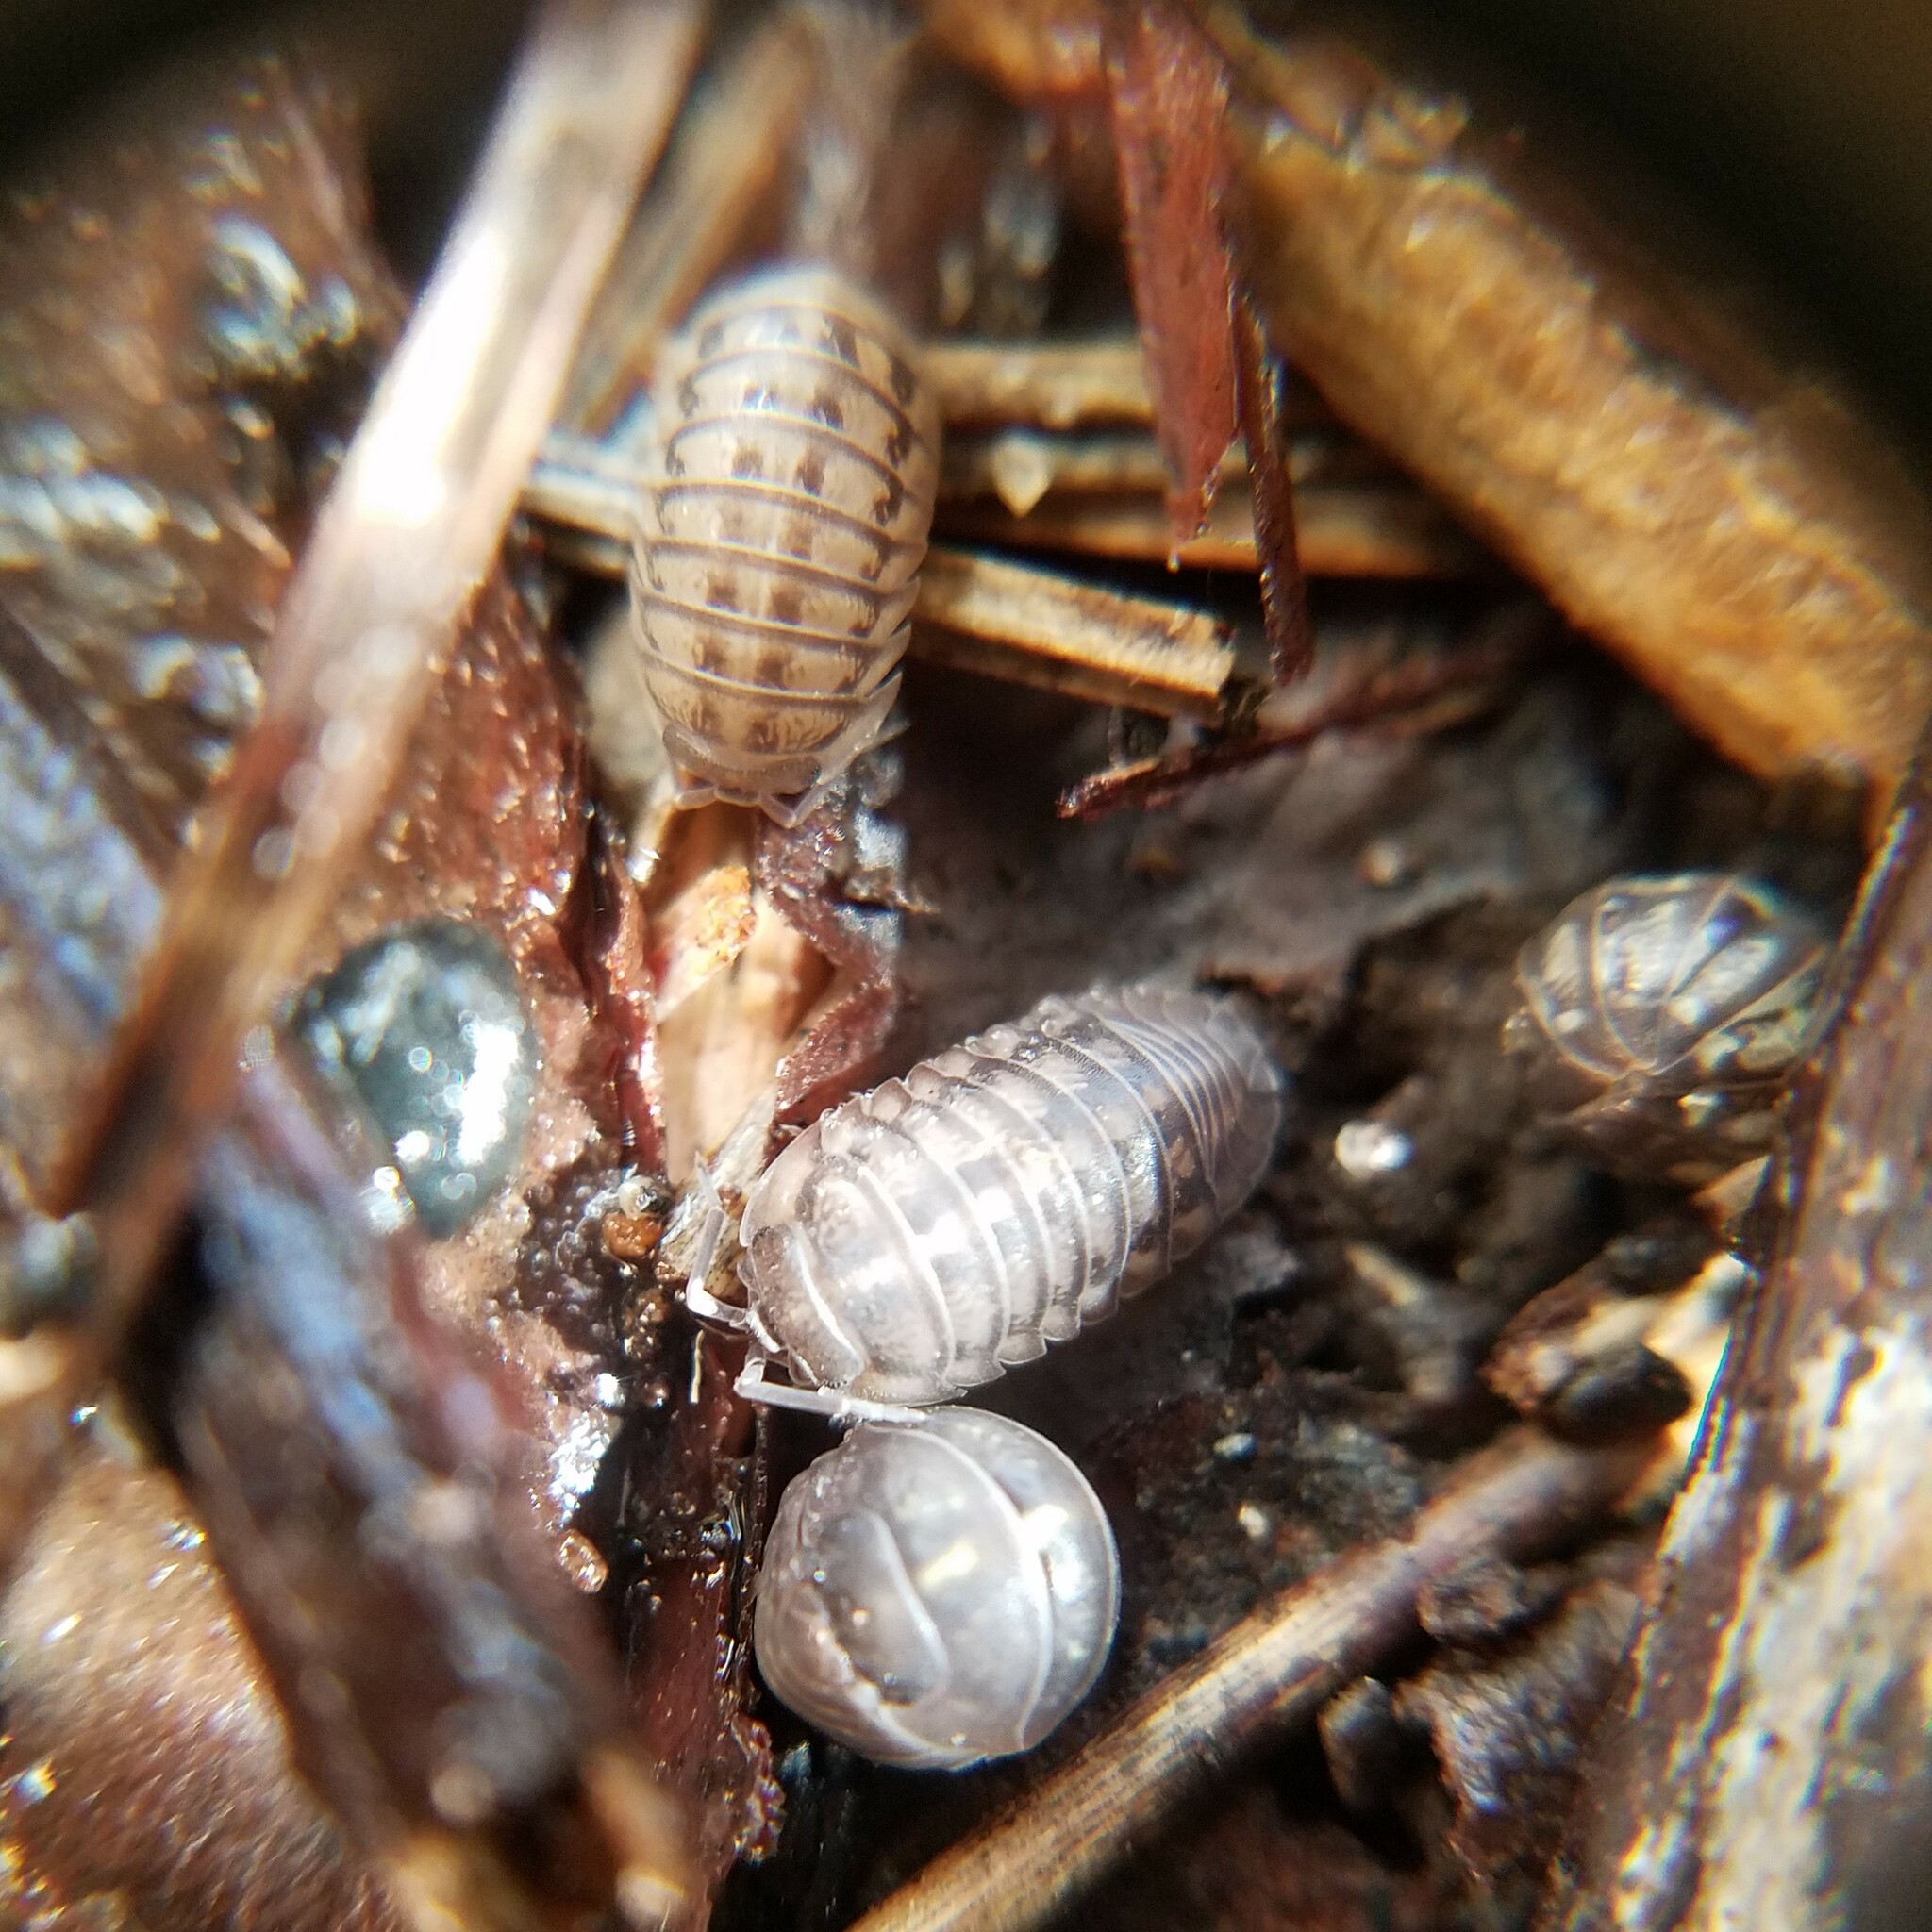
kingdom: Animalia
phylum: Arthropoda
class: Malacostraca
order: Isopoda
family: Armadillidiidae
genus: Armadillidium
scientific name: Armadillidium nasatum
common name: Isopod
